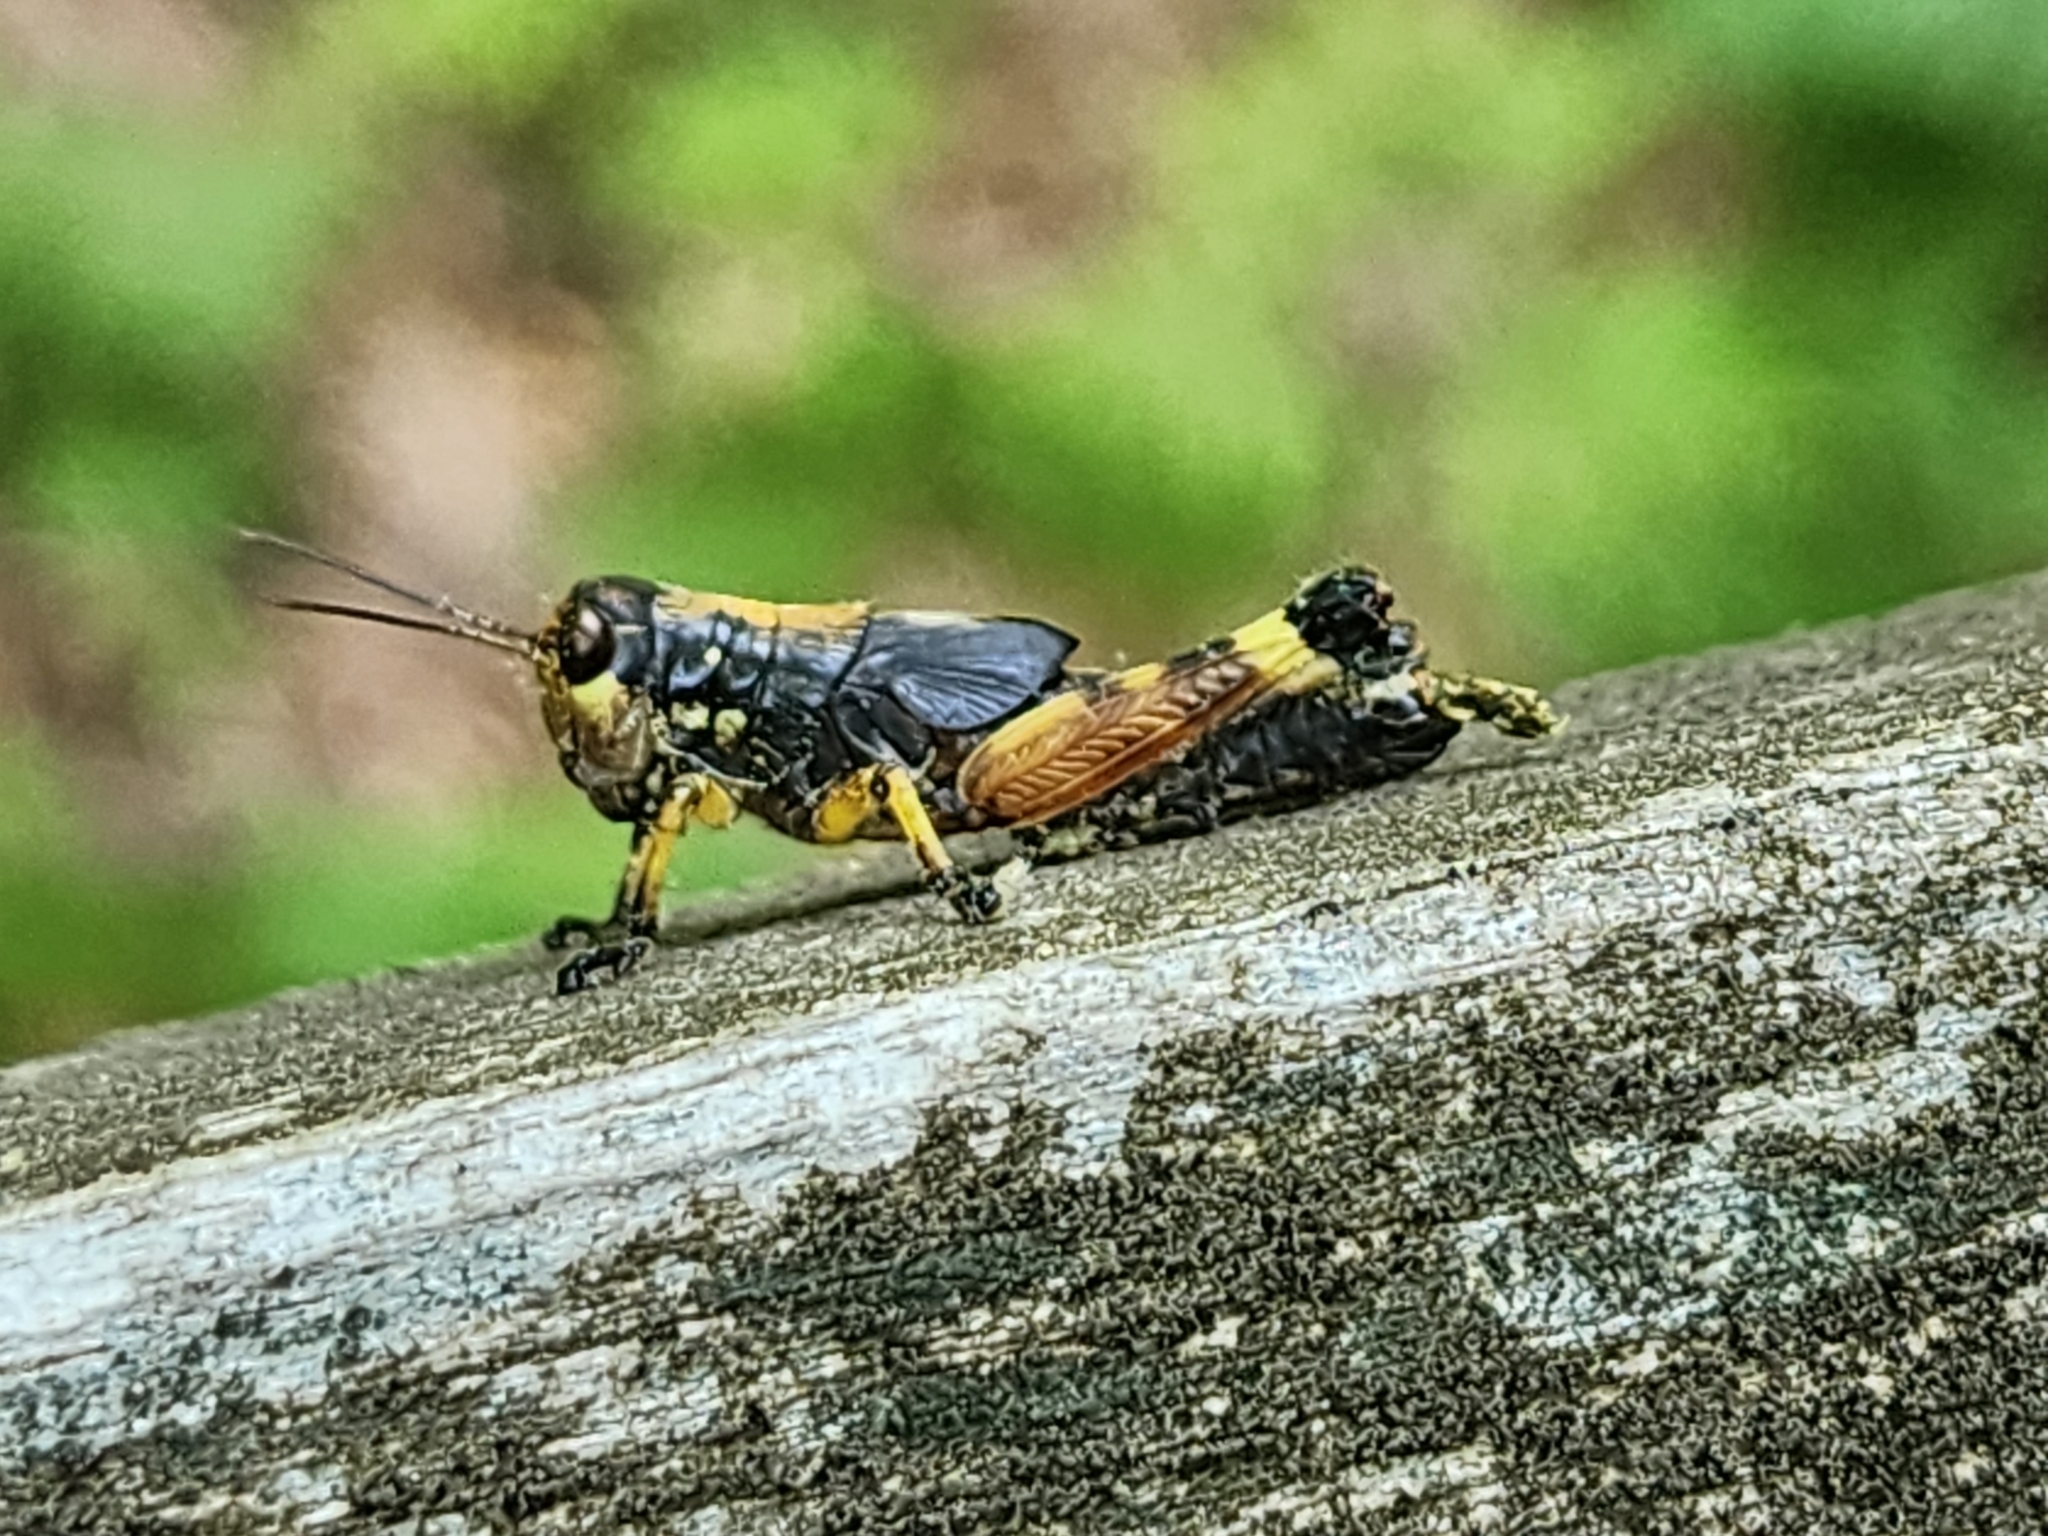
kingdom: Animalia
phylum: Arthropoda
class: Insecta
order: Orthoptera
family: Acrididae
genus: Dendrotettix
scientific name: Dendrotettix quercus
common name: Post oak grasshopper
